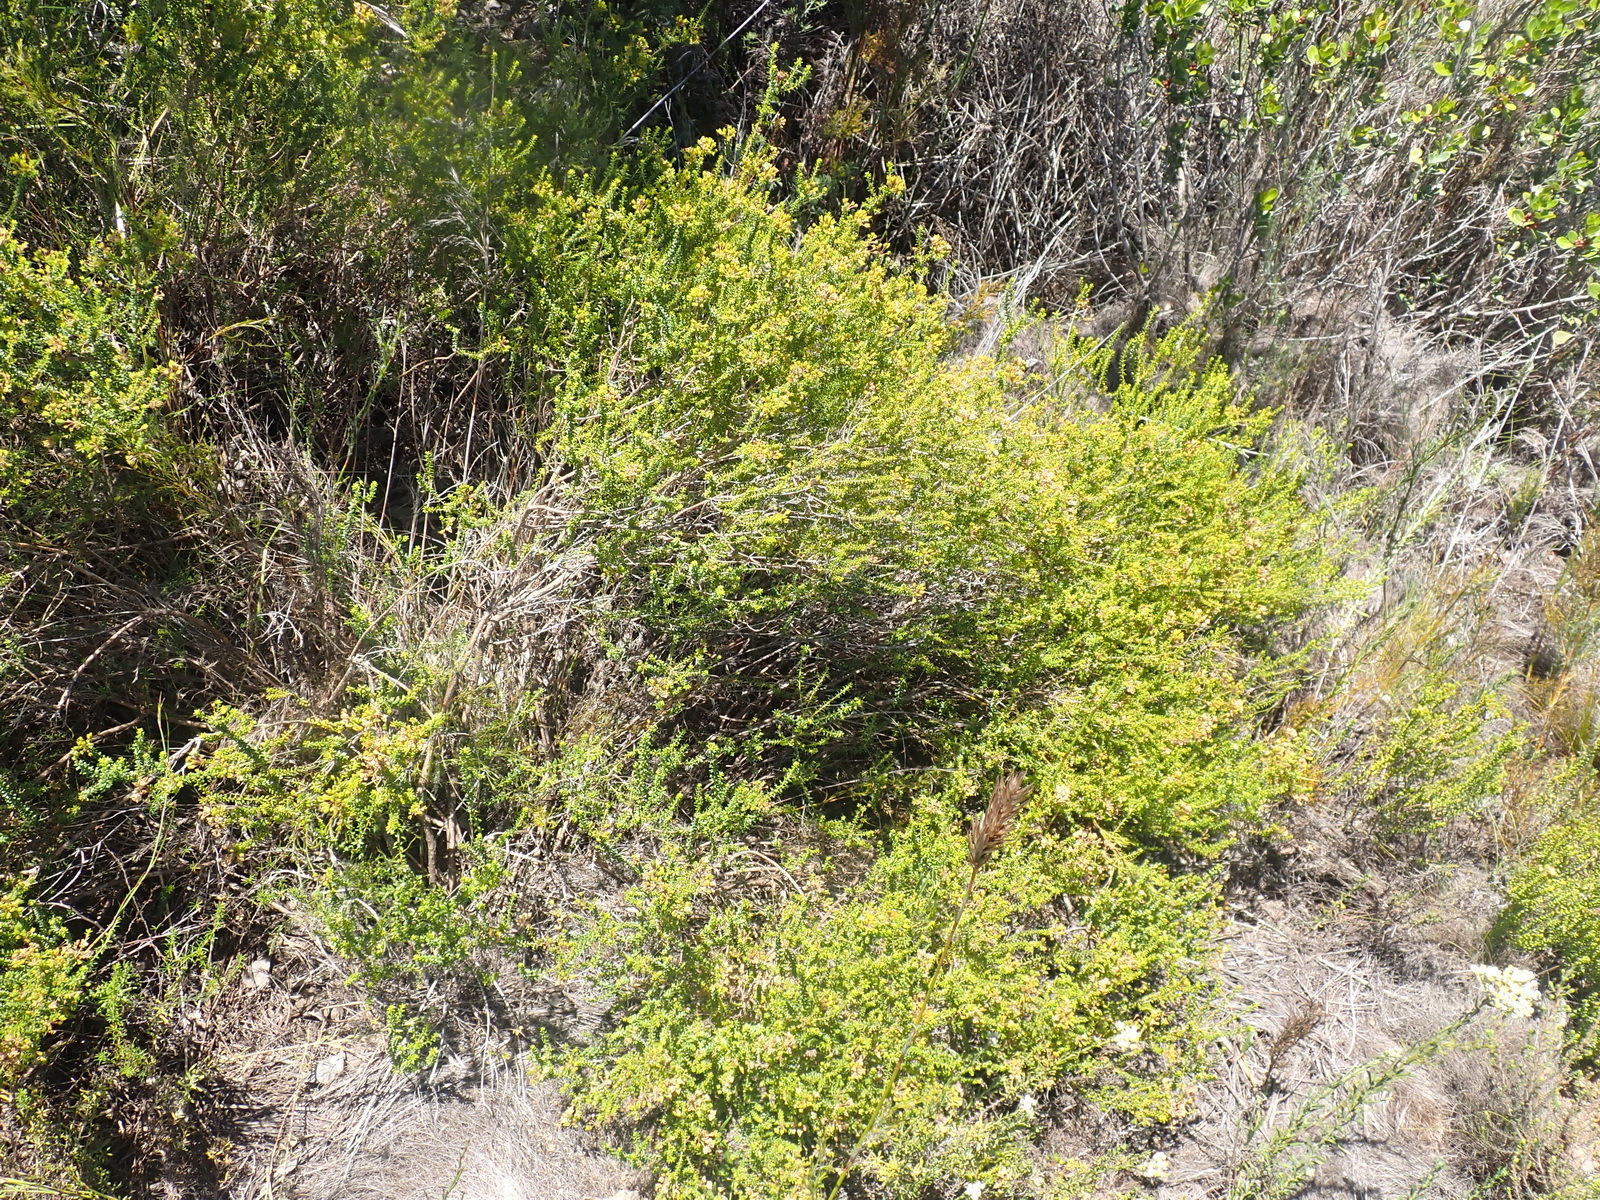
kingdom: Plantae
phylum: Tracheophyta
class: Magnoliopsida
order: Sapindales
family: Rutaceae
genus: Agathosma
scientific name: Agathosma capensis
